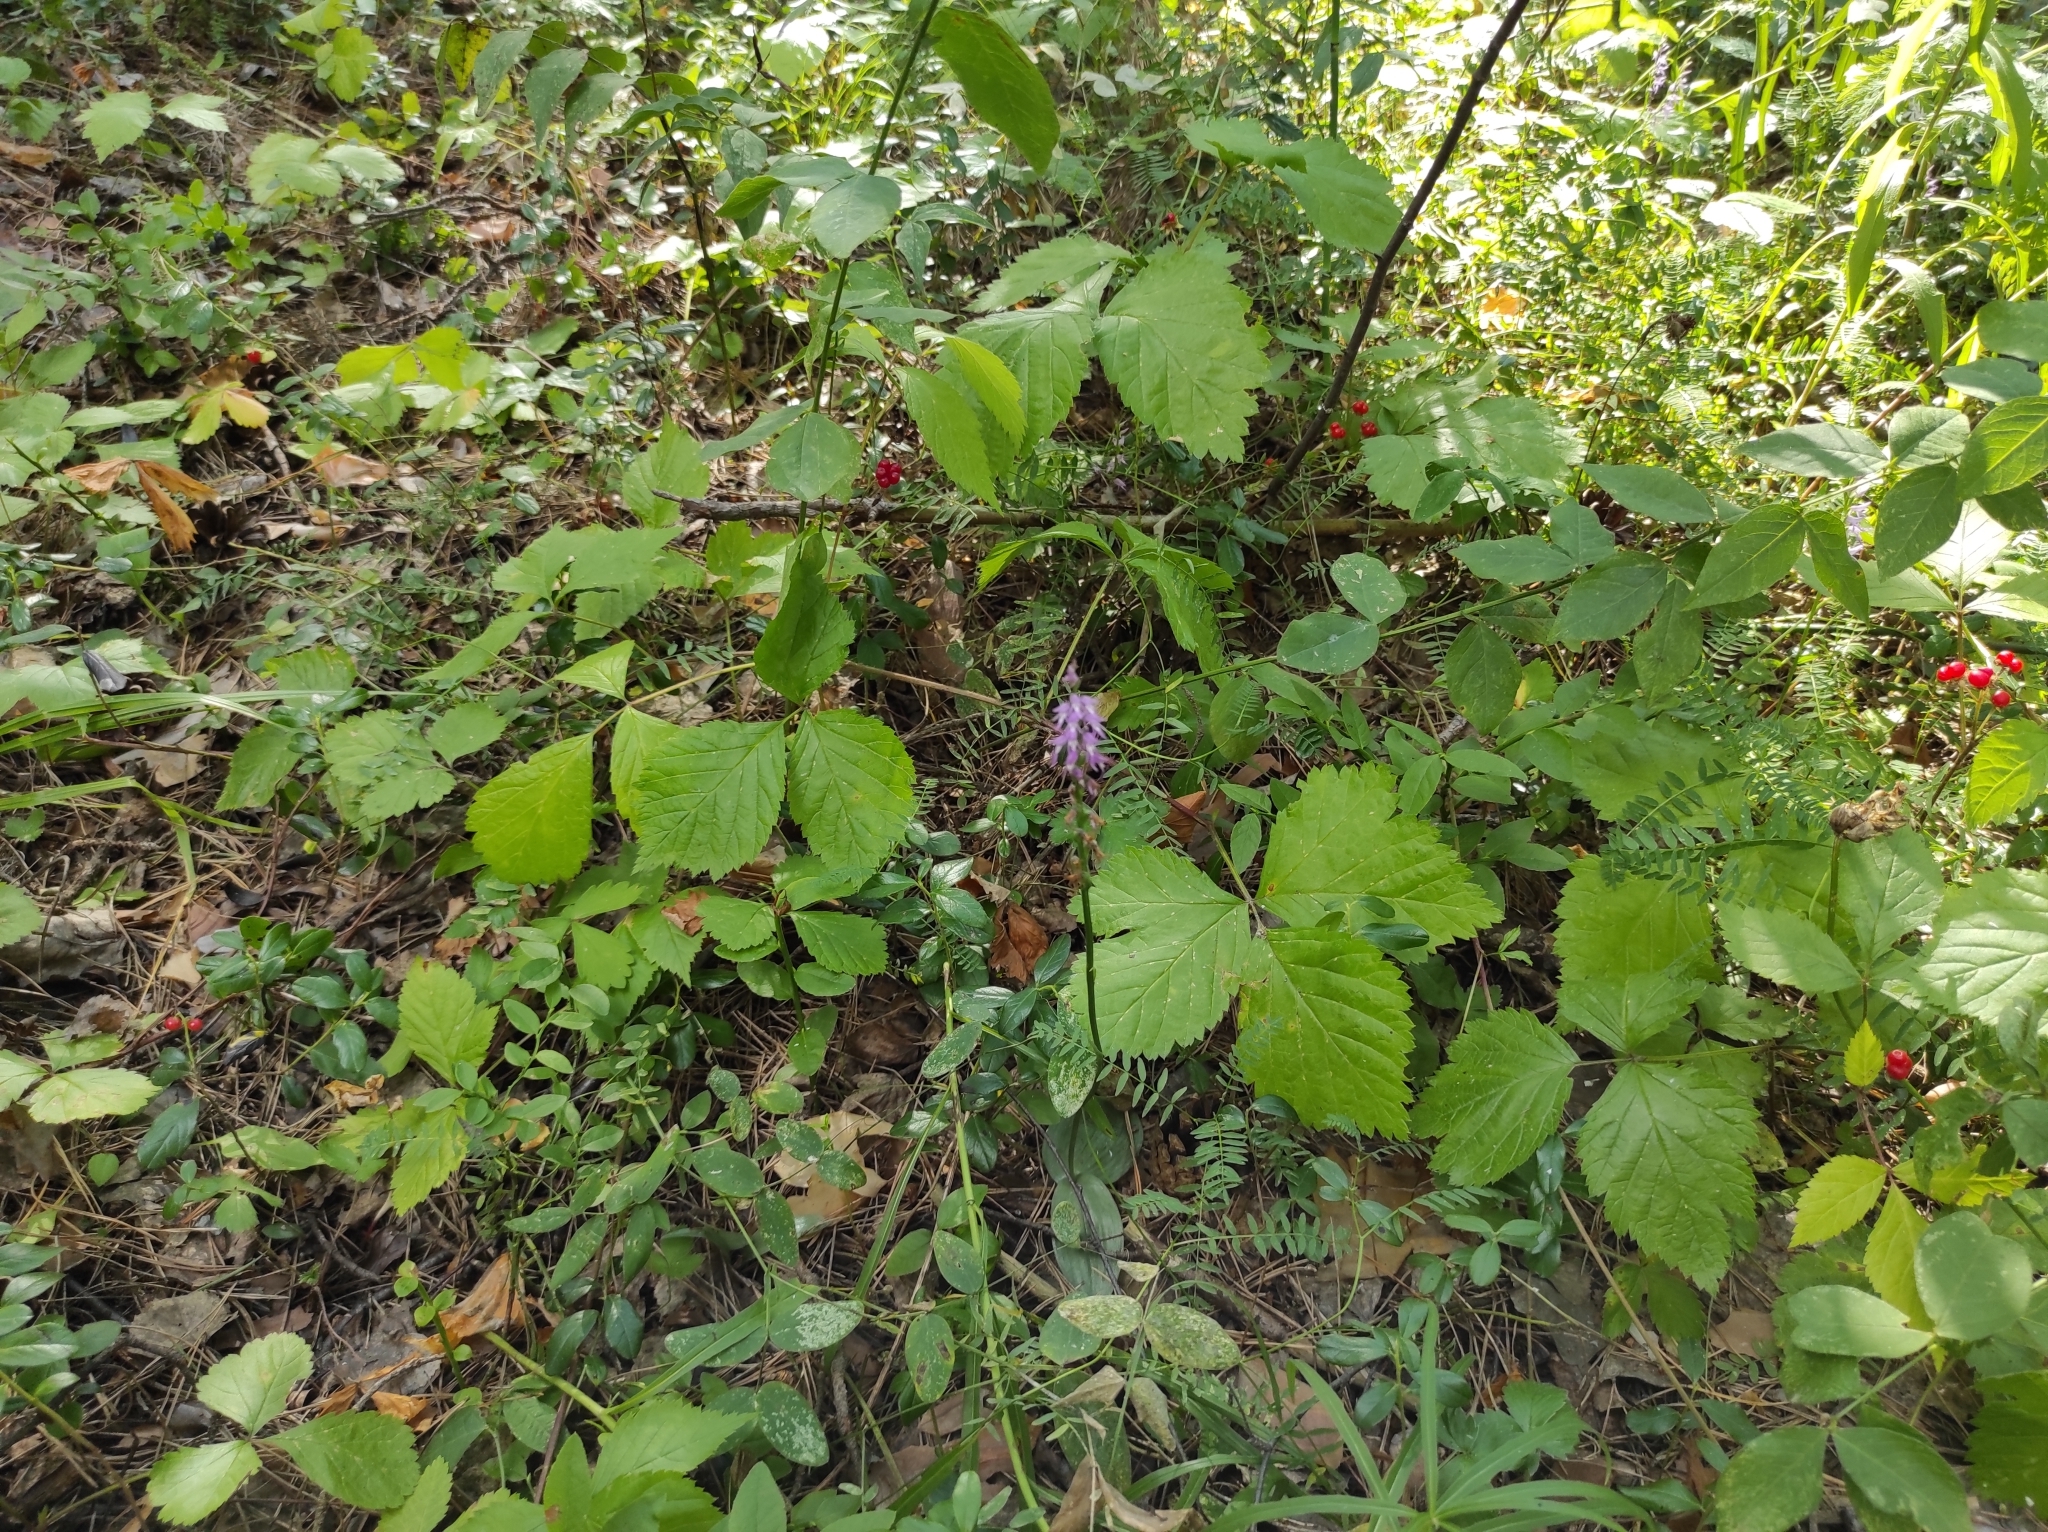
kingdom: Plantae
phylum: Tracheophyta
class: Liliopsida
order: Asparagales
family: Orchidaceae
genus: Hemipilia
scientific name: Hemipilia cucullata
